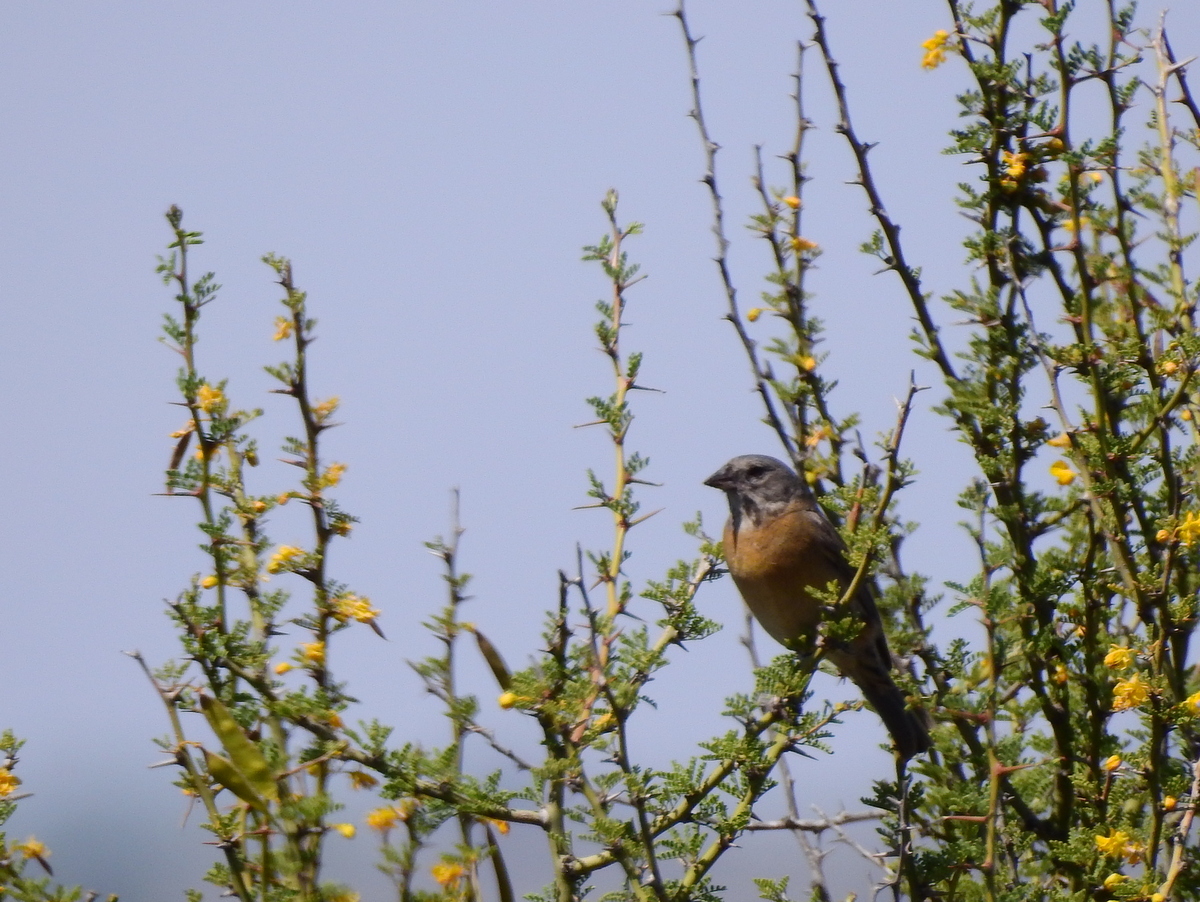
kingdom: Animalia
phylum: Chordata
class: Aves
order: Passeriformes
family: Thraupidae
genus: Phrygilus
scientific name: Phrygilus gayi
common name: Grey-hooded sierra finch
